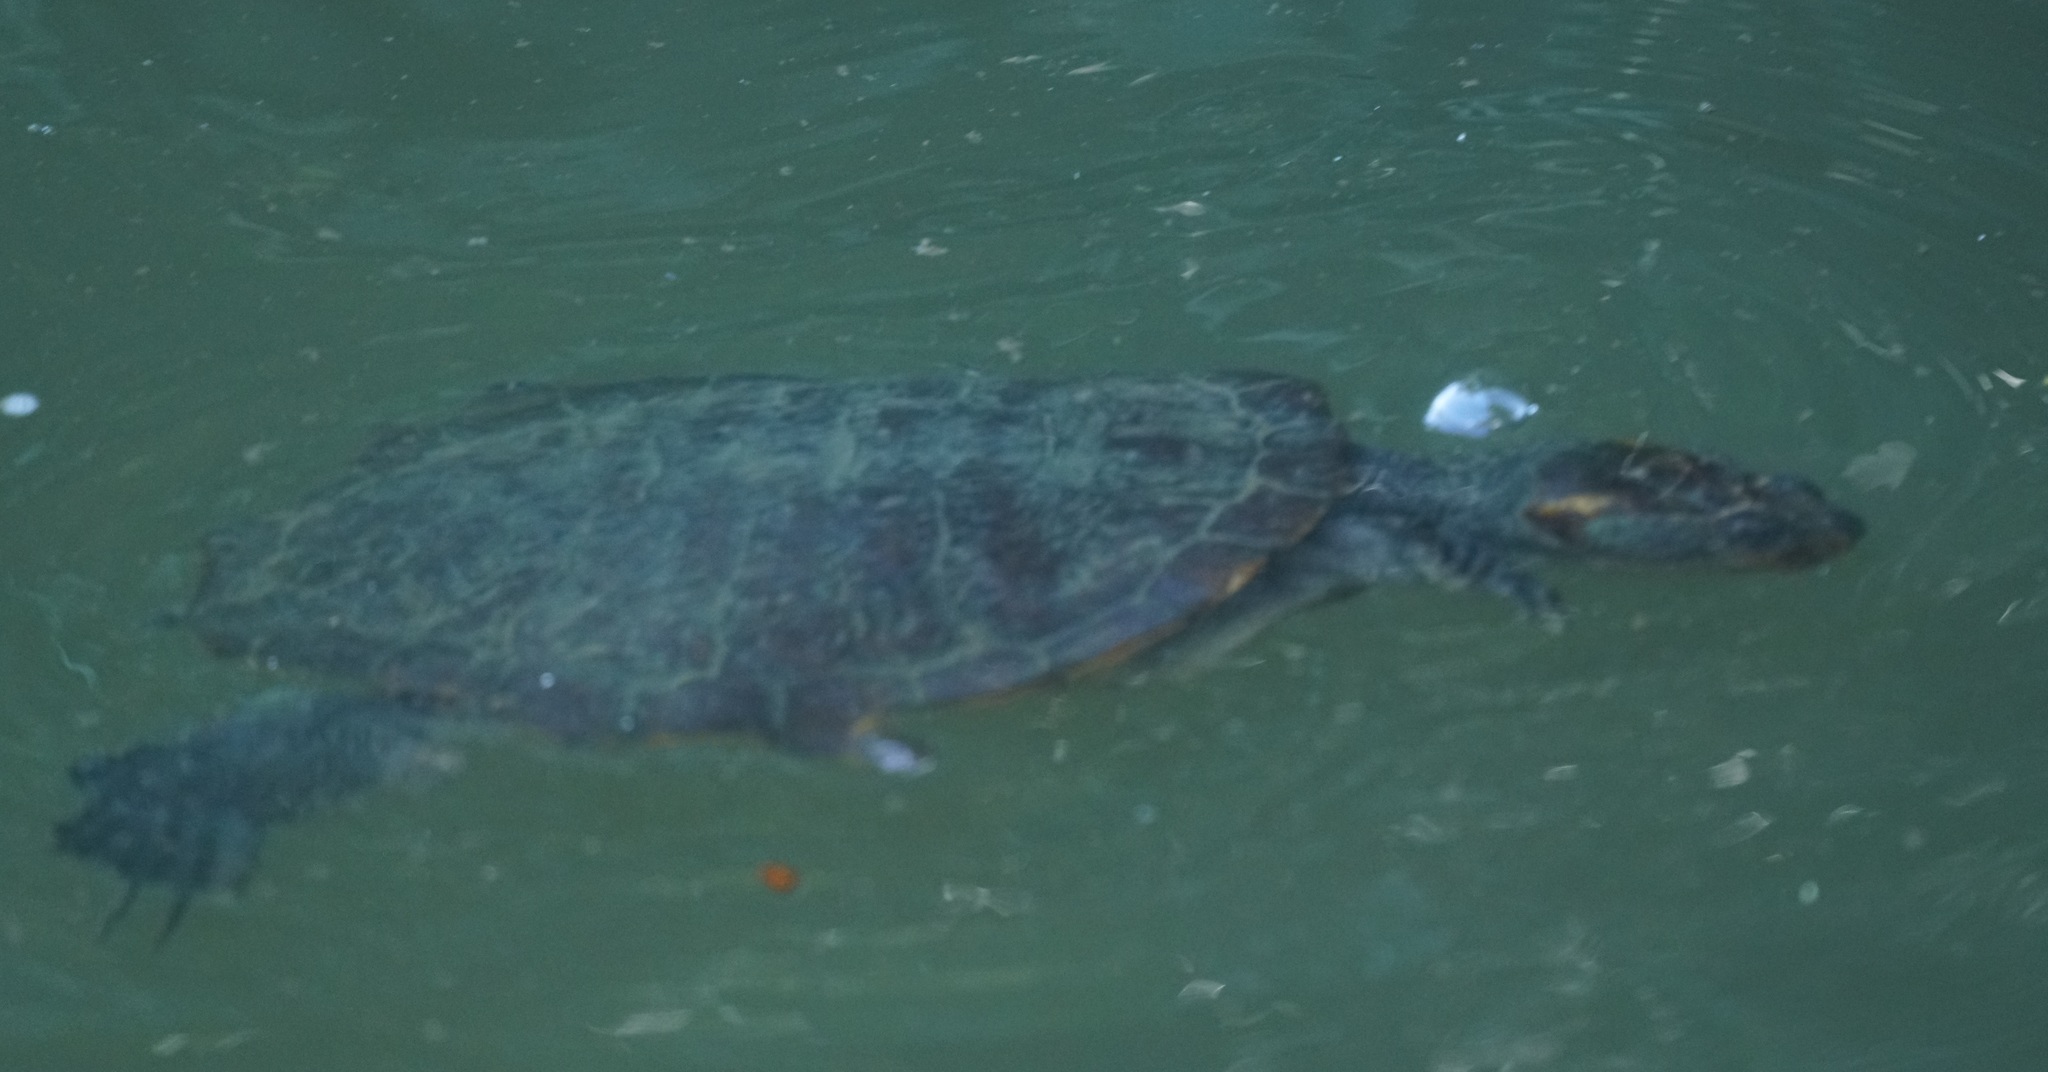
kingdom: Animalia
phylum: Chordata
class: Testudines
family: Chelidae
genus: Myuchelys
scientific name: Myuchelys latisternum
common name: Serrated snapping turtle
